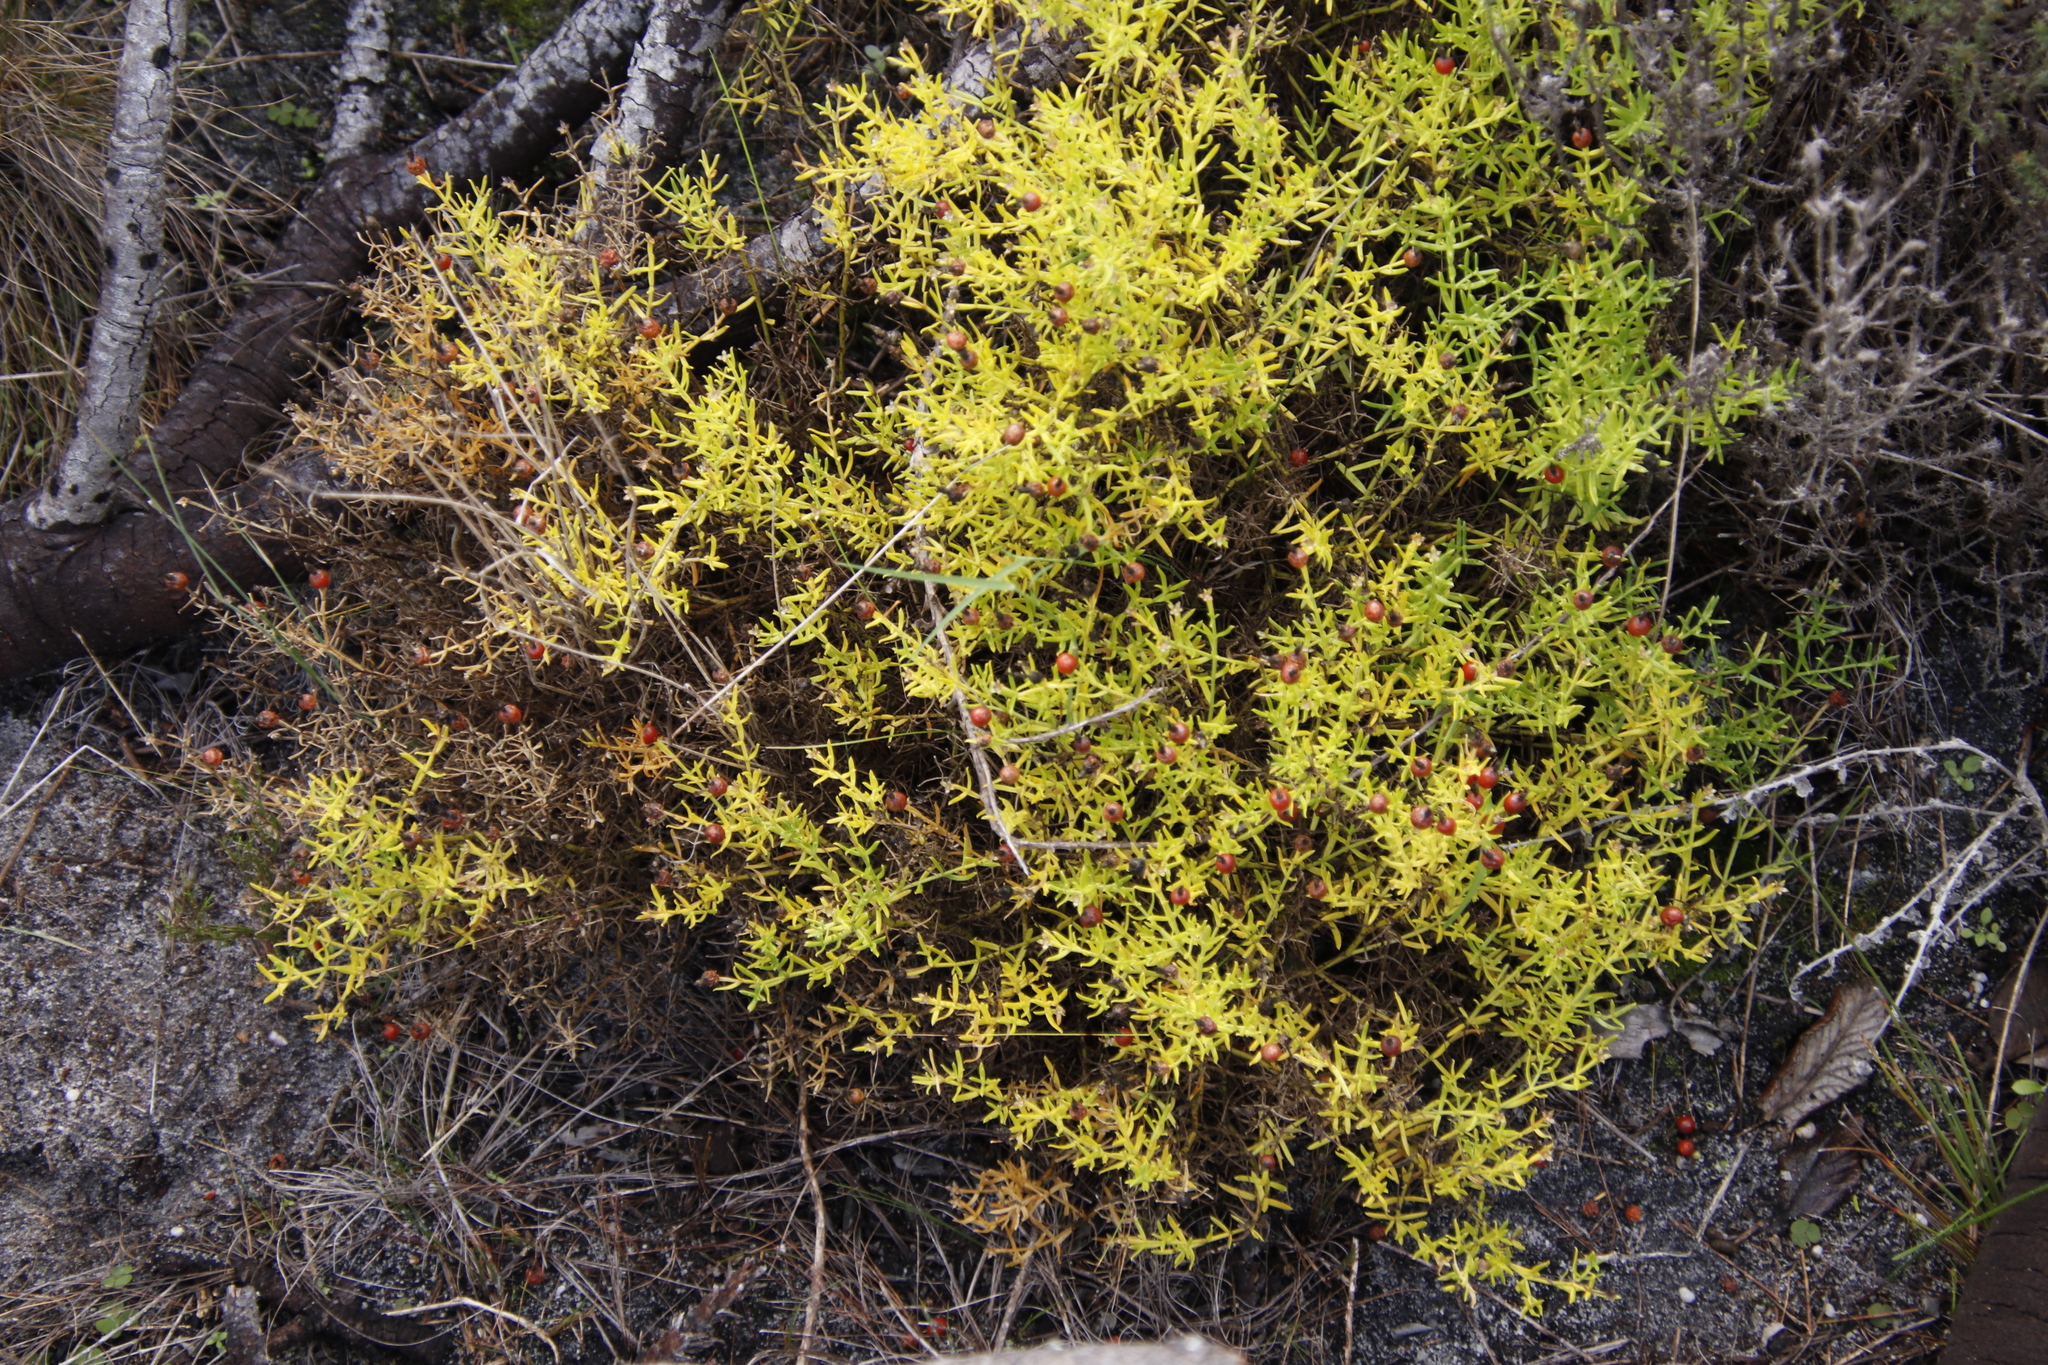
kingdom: Plantae
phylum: Tracheophyta
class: Magnoliopsida
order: Gentianales
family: Gentianaceae
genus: Chironia
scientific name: Chironia baccifera
